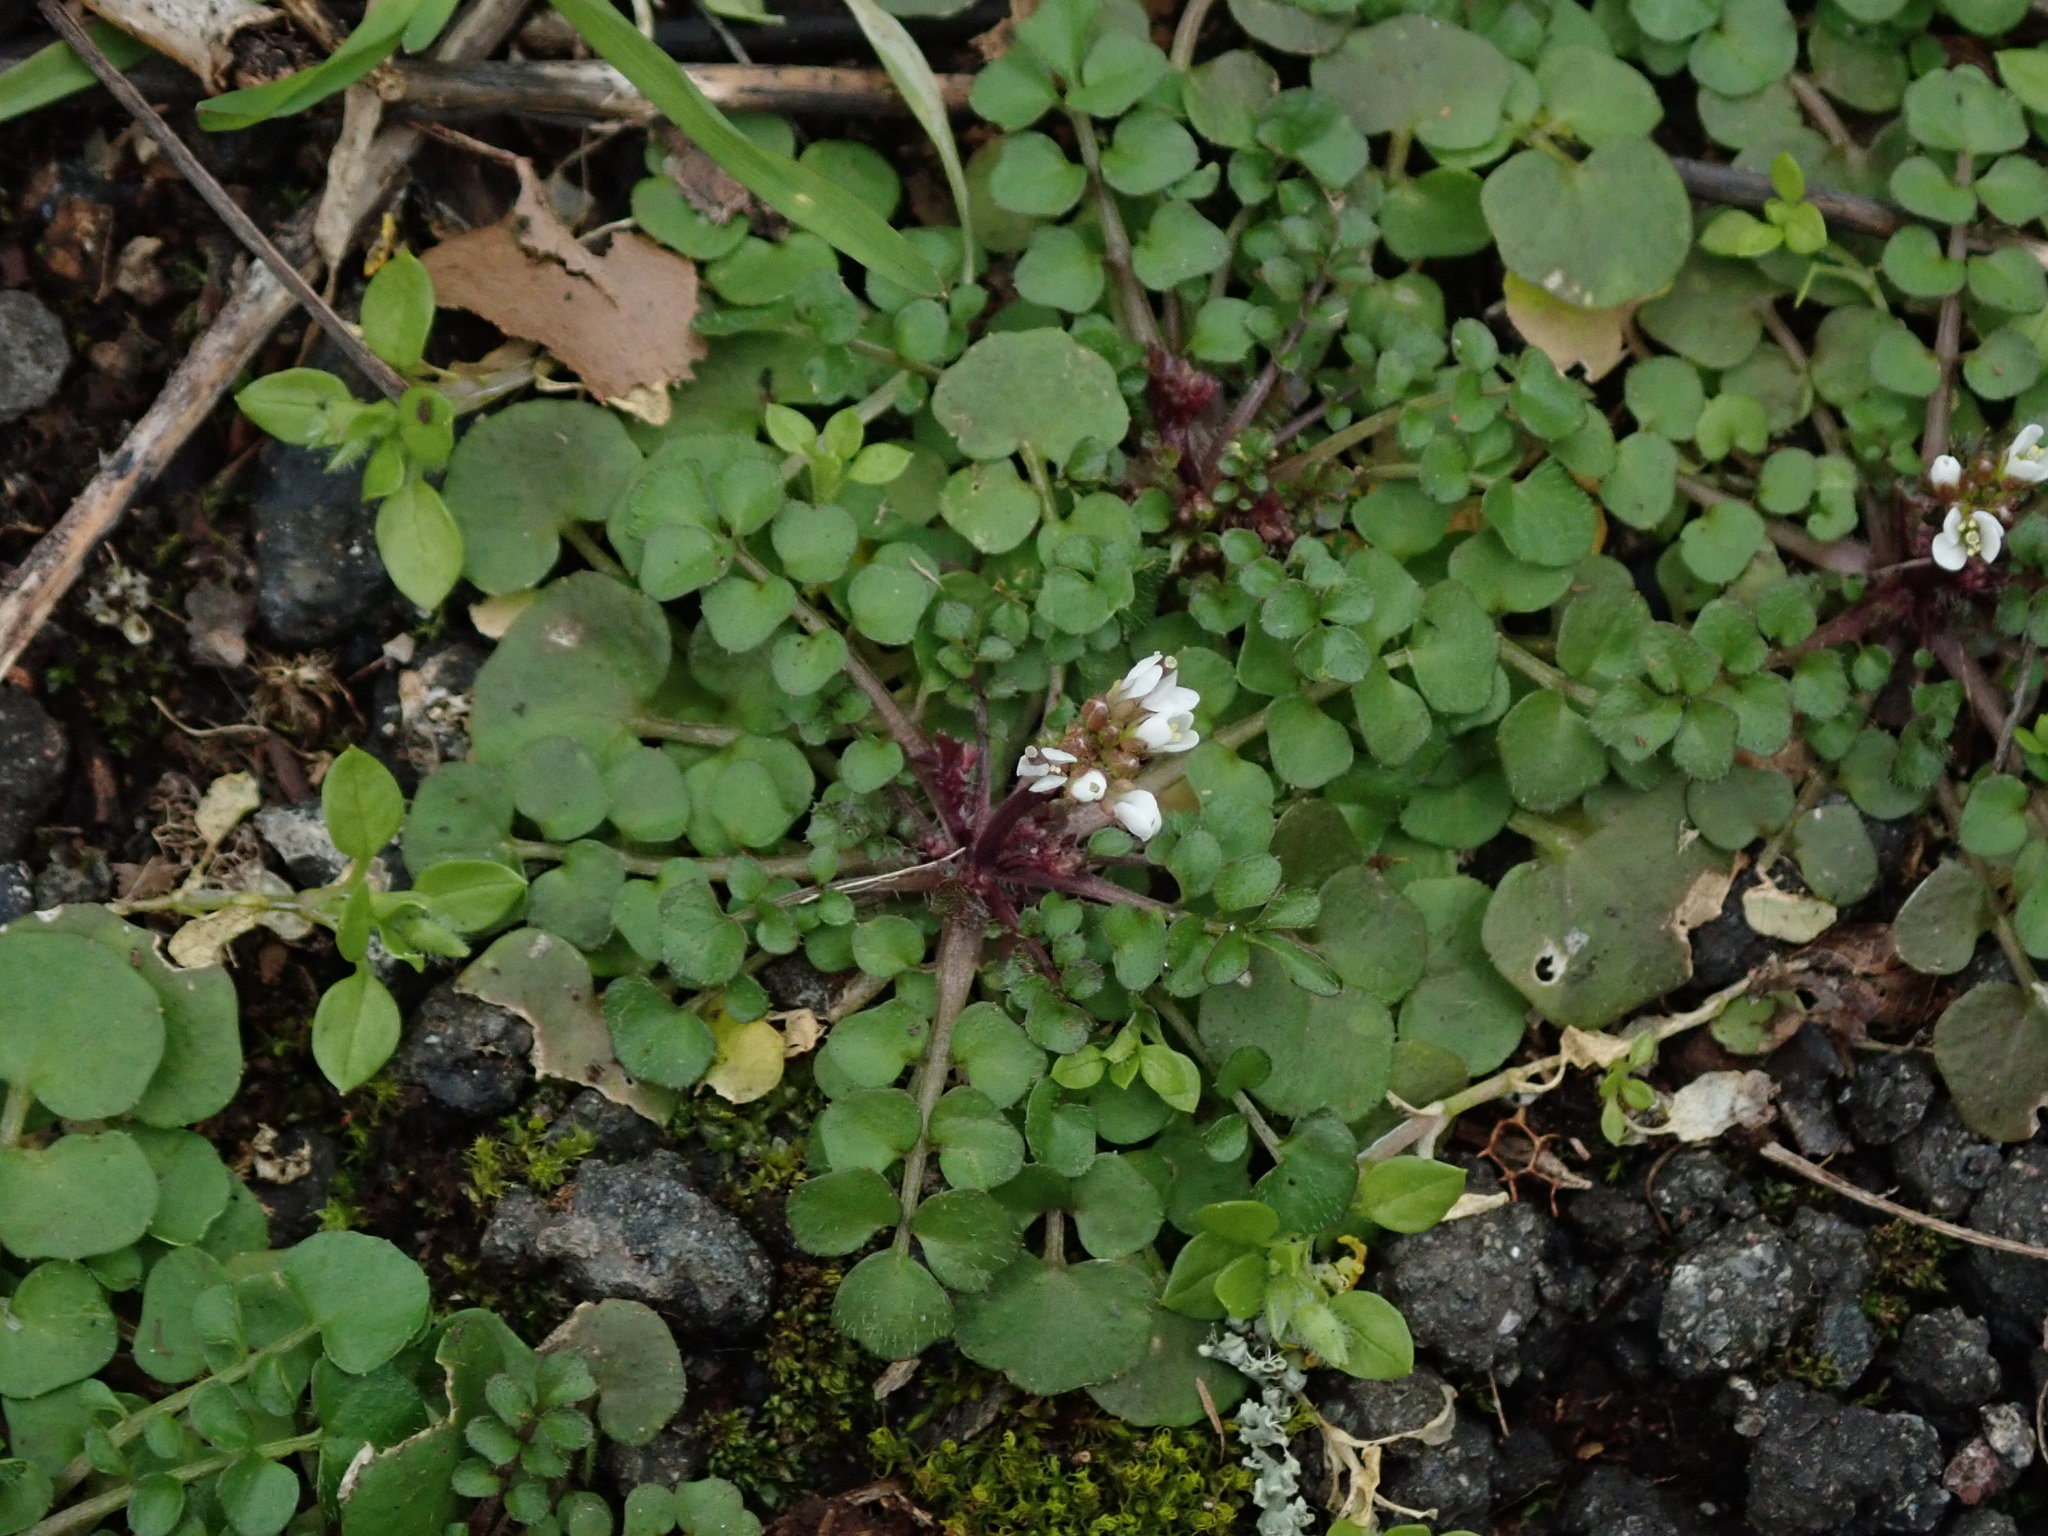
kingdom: Plantae
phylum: Tracheophyta
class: Magnoliopsida
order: Brassicales
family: Brassicaceae
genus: Cardamine
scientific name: Cardamine hirsuta
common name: Hairy bittercress
